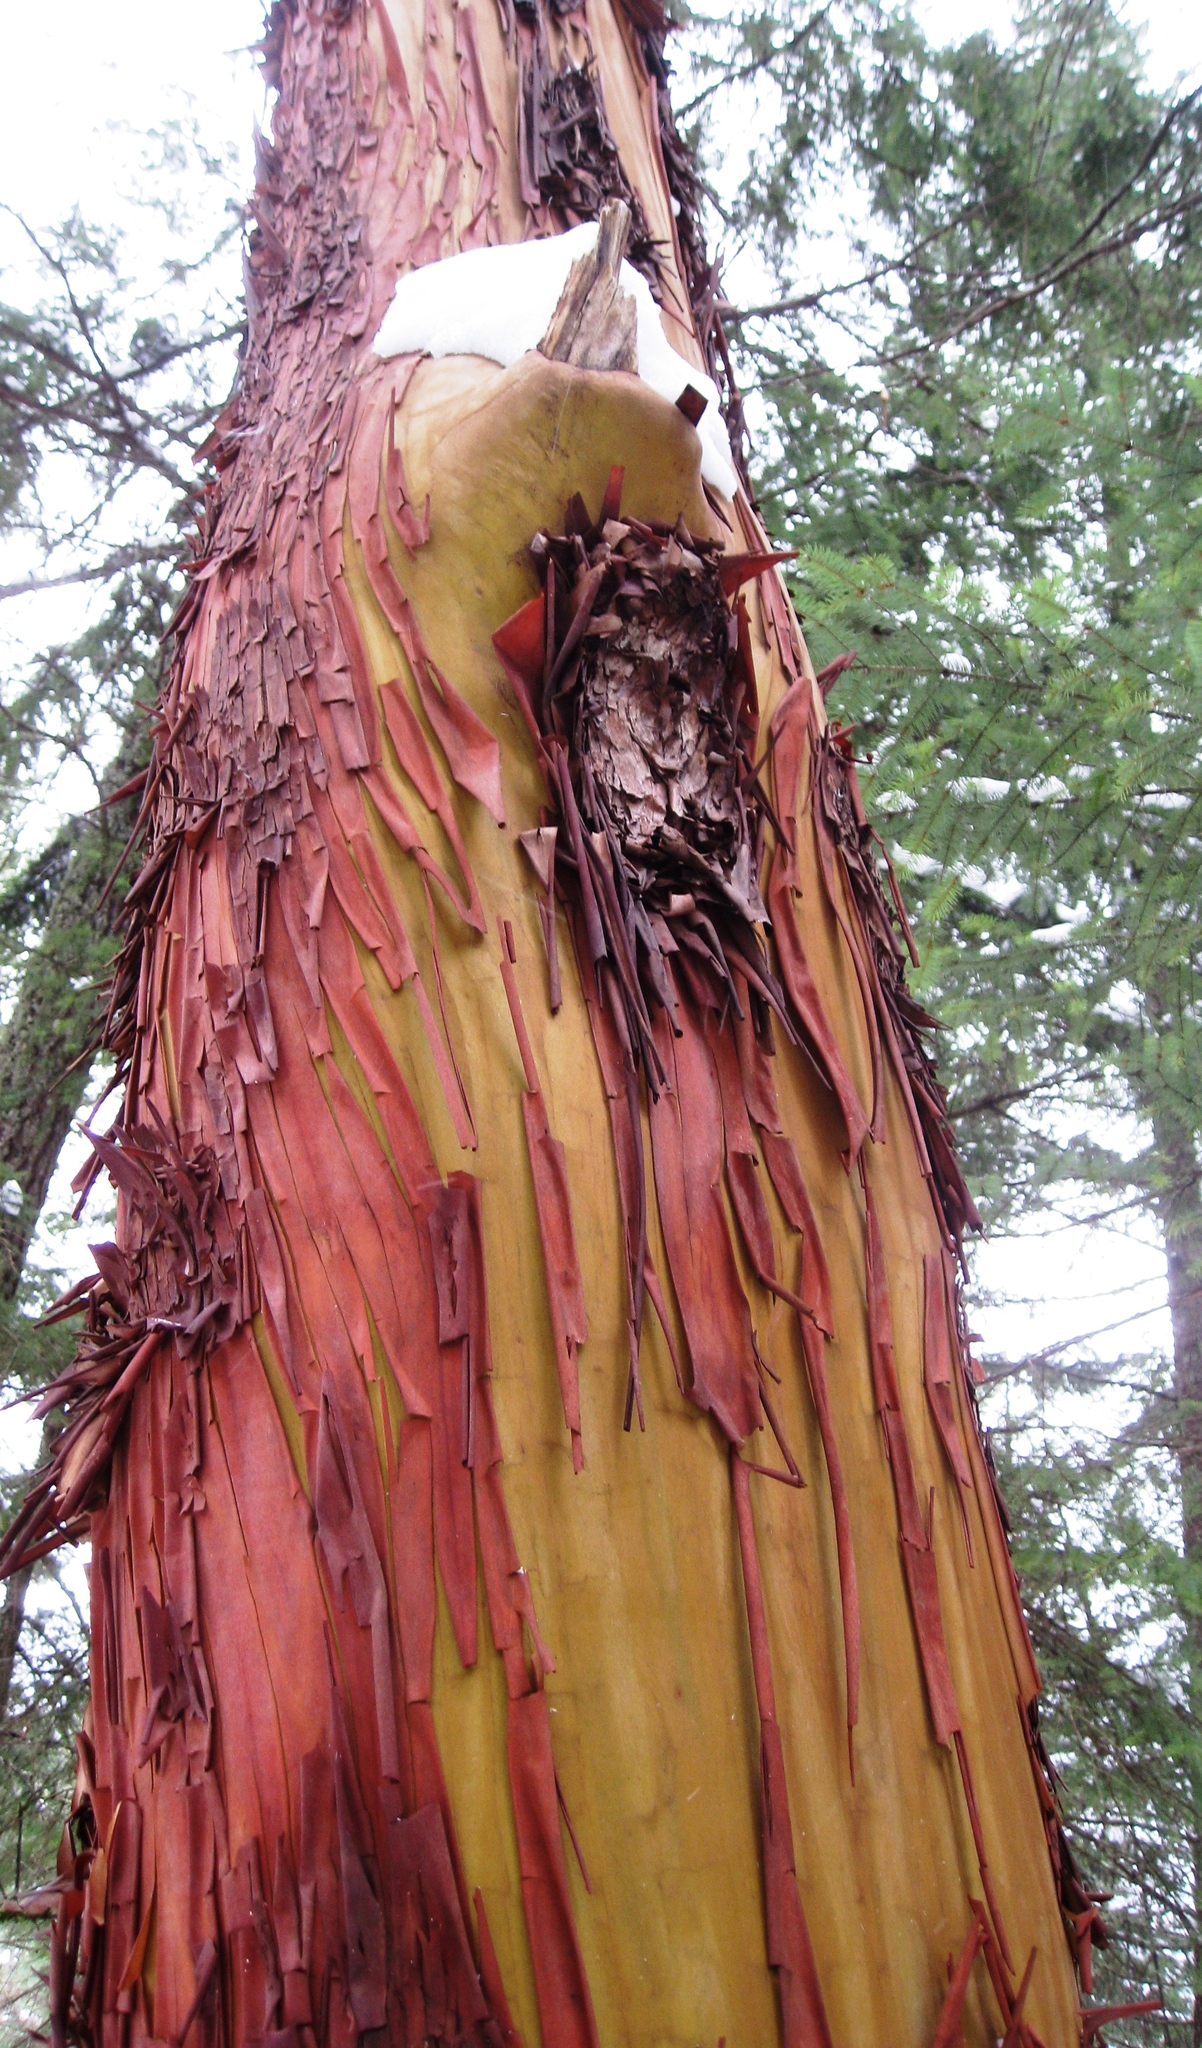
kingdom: Plantae
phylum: Tracheophyta
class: Magnoliopsida
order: Ericales
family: Ericaceae
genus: Arbutus
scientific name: Arbutus menziesii
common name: Pacific madrone
